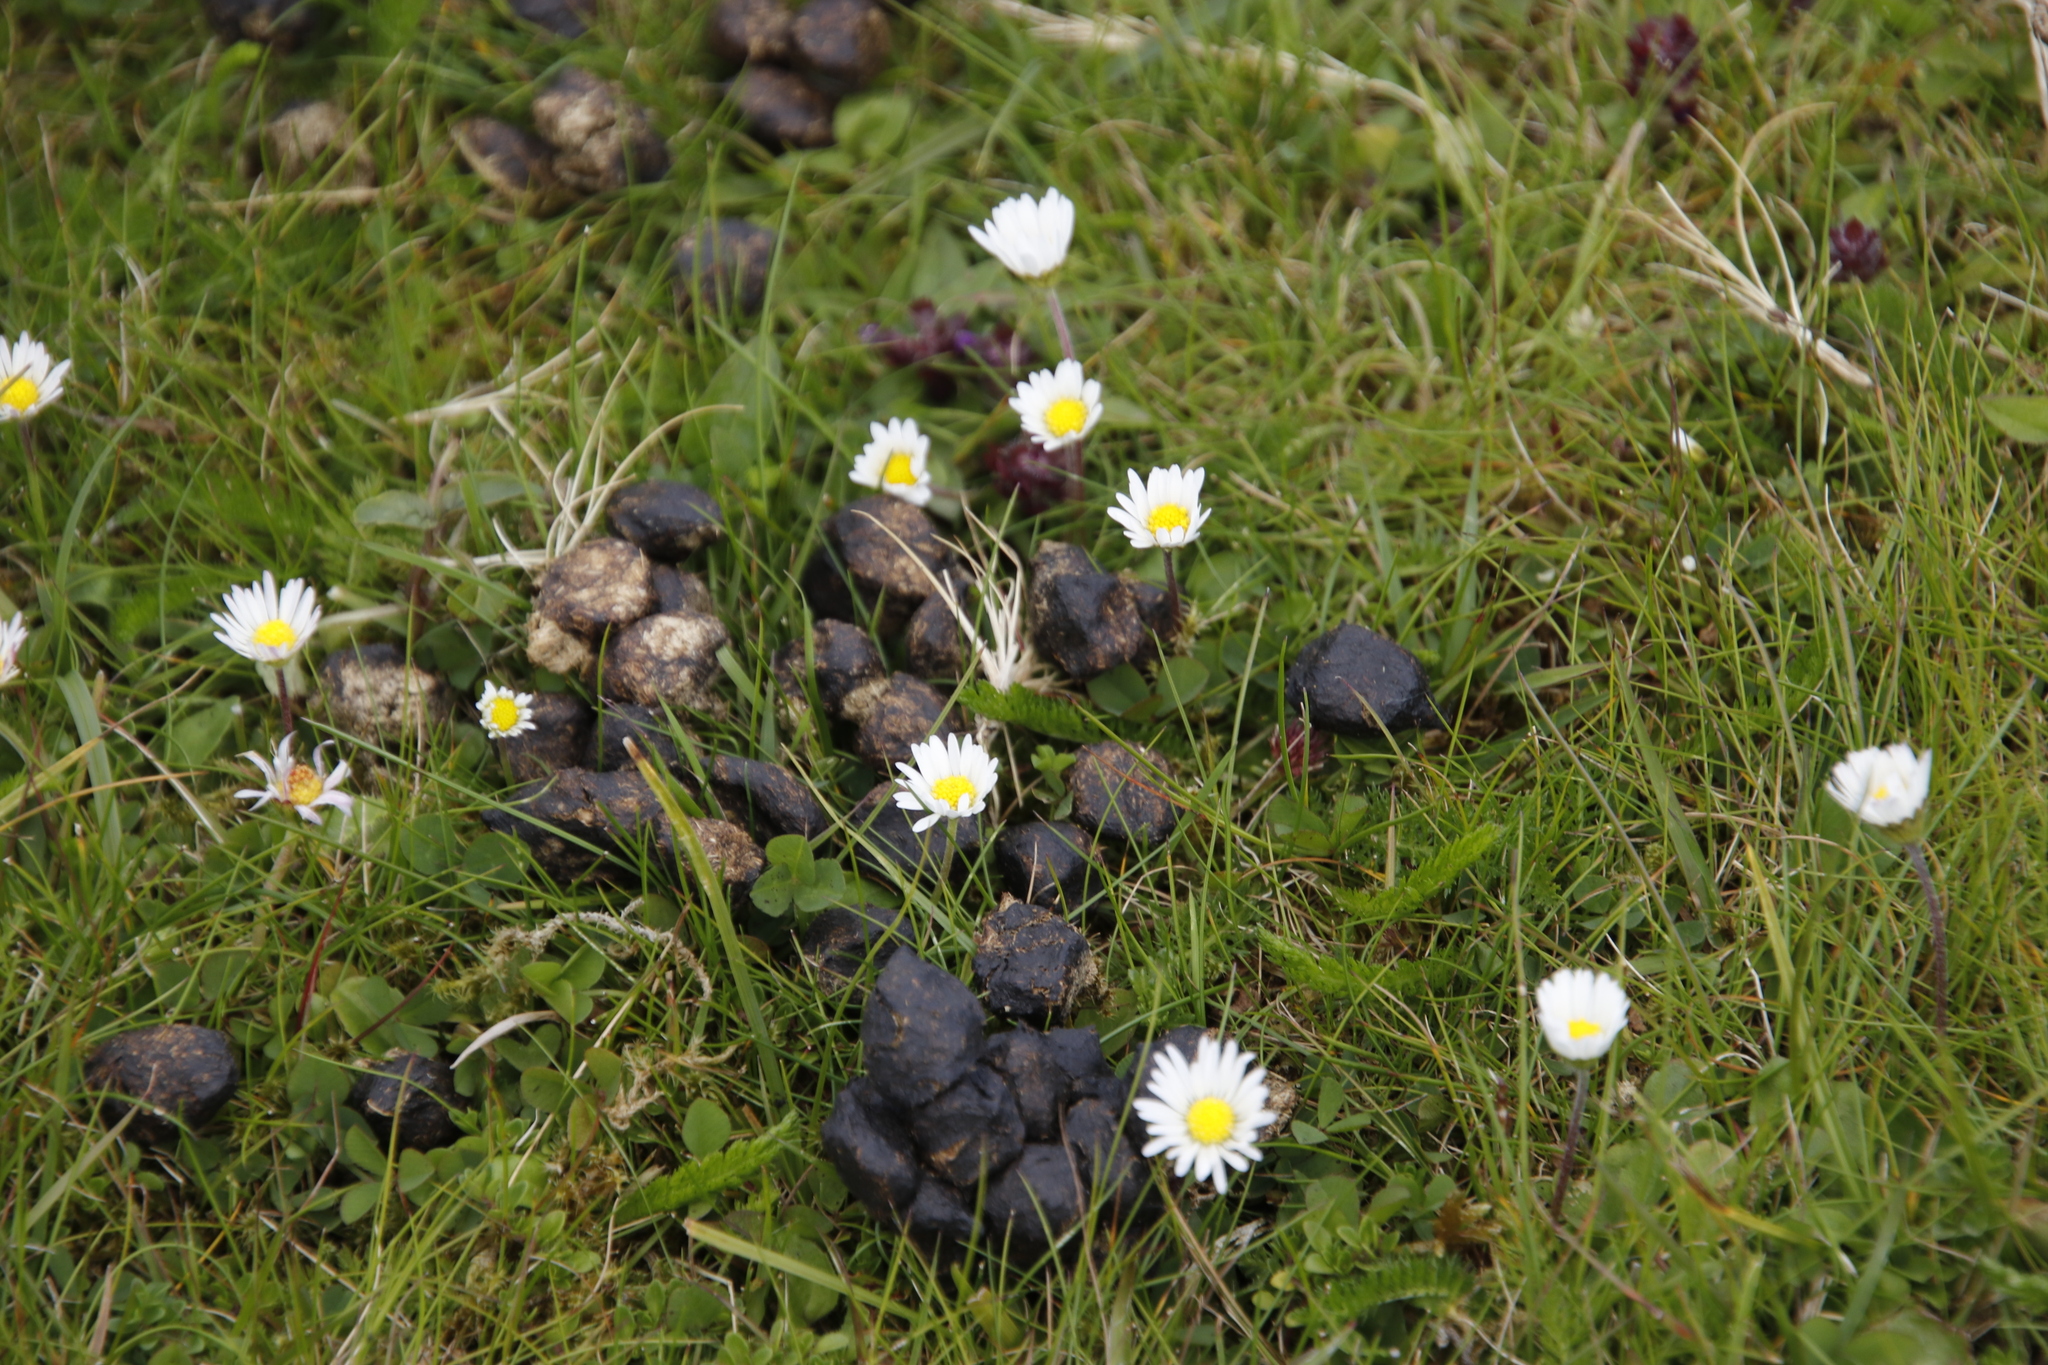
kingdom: Plantae
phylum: Tracheophyta
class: Magnoliopsida
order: Asterales
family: Asteraceae
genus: Bellis
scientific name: Bellis perennis
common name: Lawndaisy
